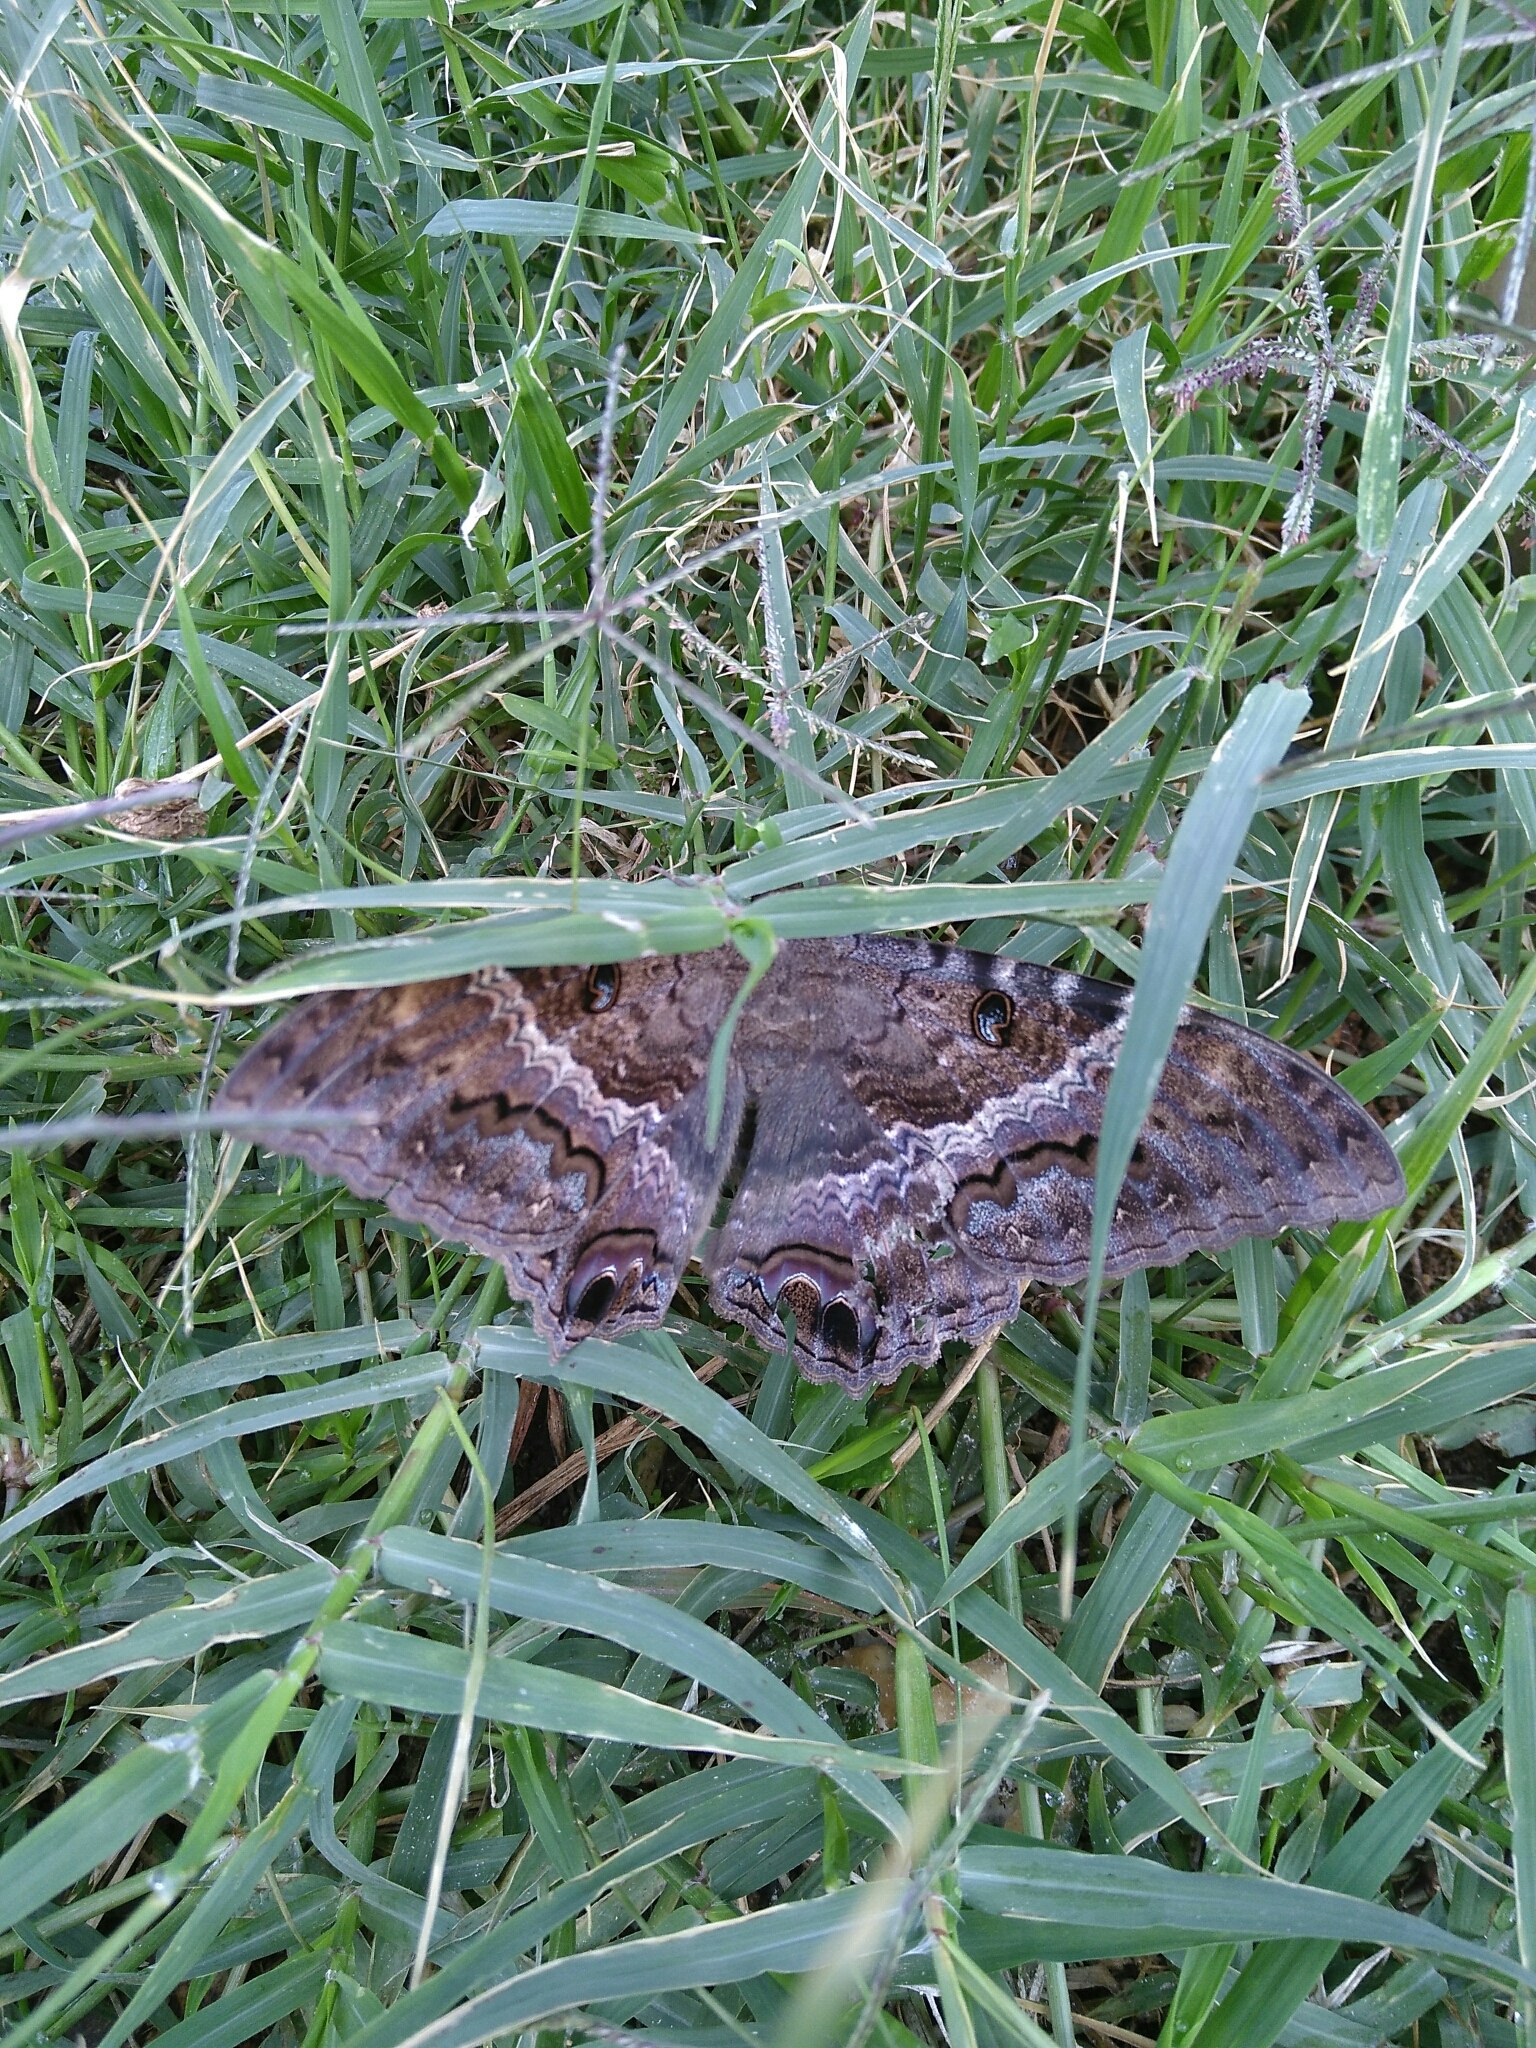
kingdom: Animalia
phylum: Arthropoda
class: Insecta
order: Lepidoptera
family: Erebidae
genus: Ascalapha
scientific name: Ascalapha odorata
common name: Black witch
